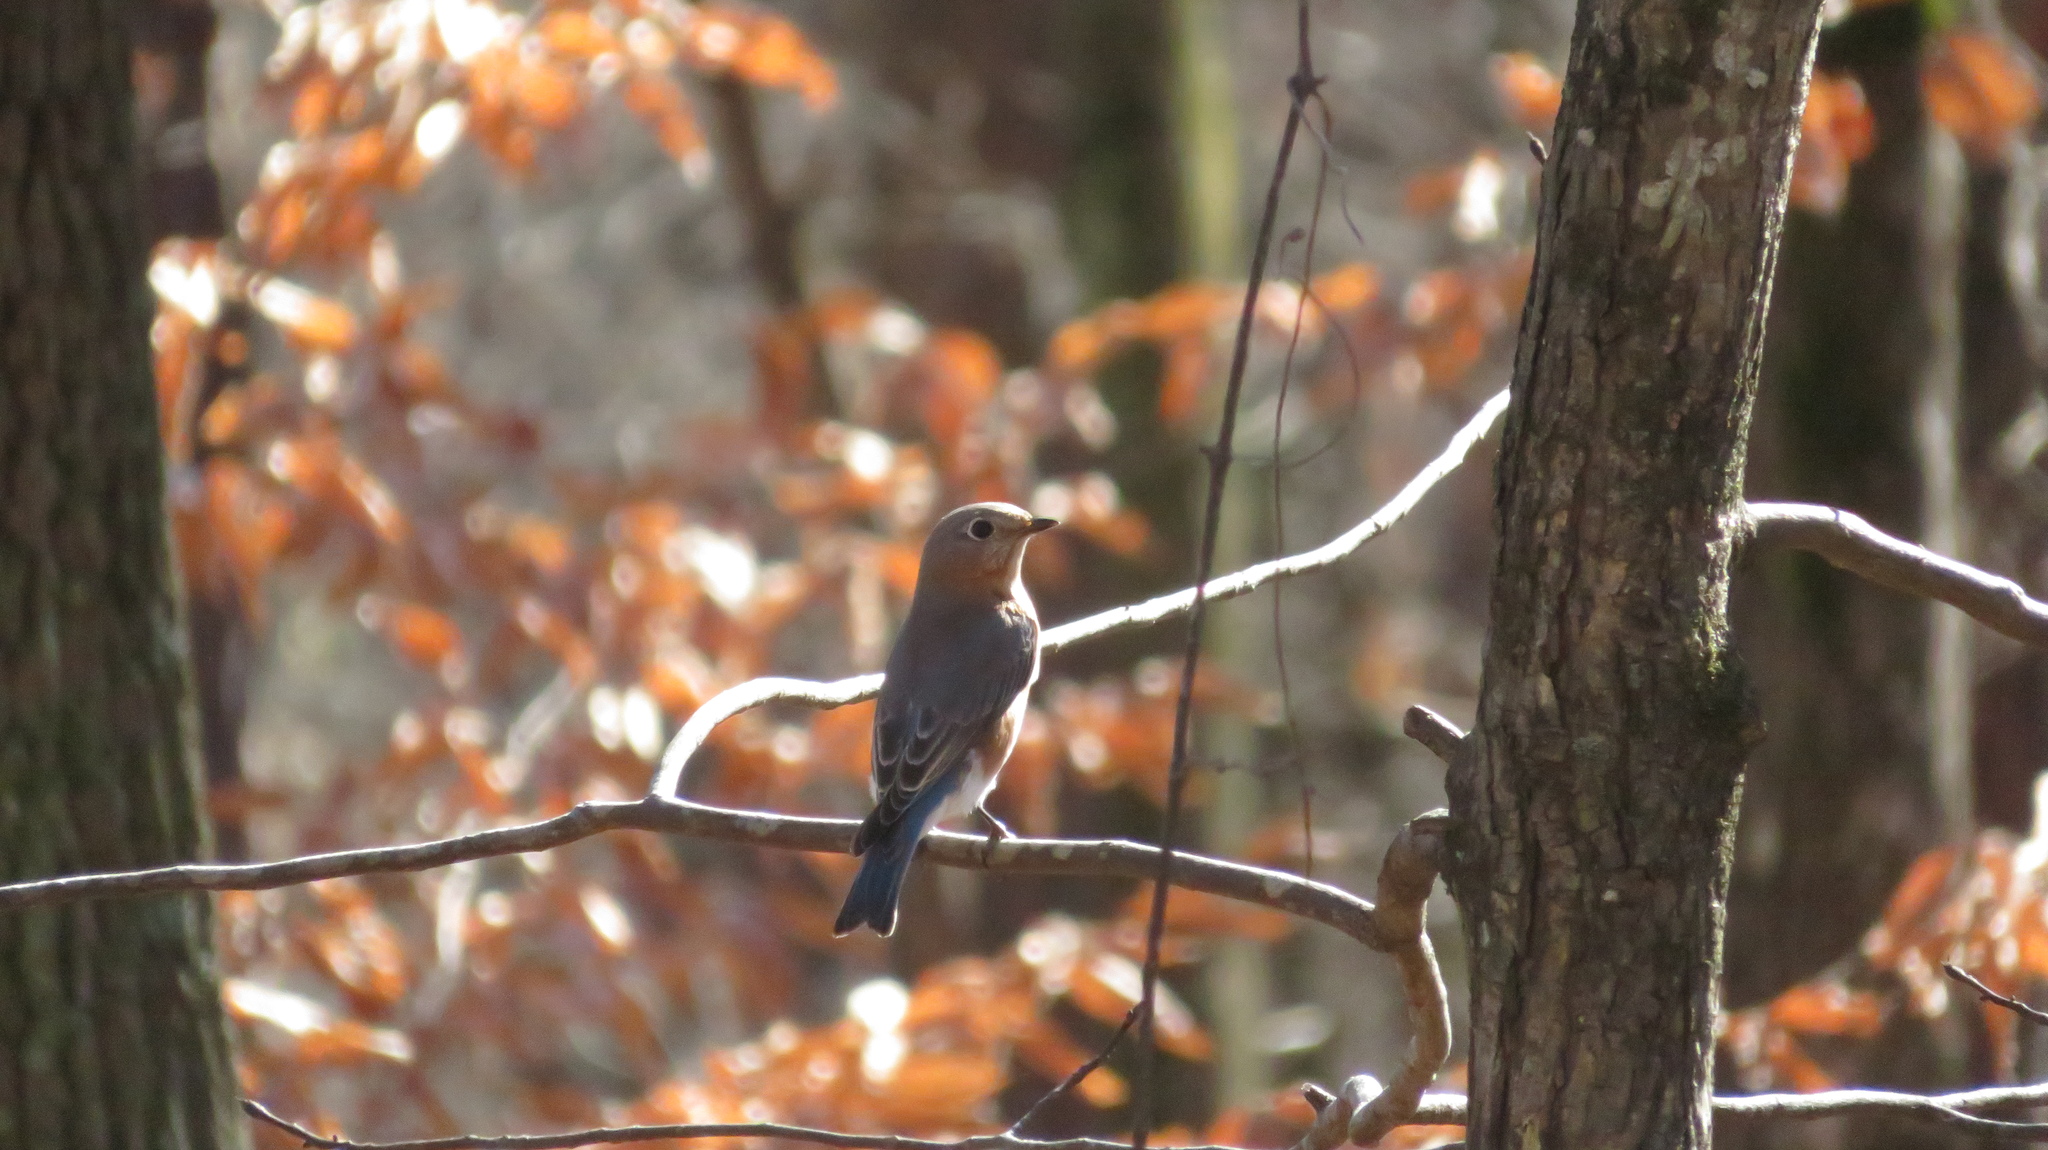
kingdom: Animalia
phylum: Chordata
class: Aves
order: Passeriformes
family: Turdidae
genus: Sialia
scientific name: Sialia sialis
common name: Eastern bluebird
